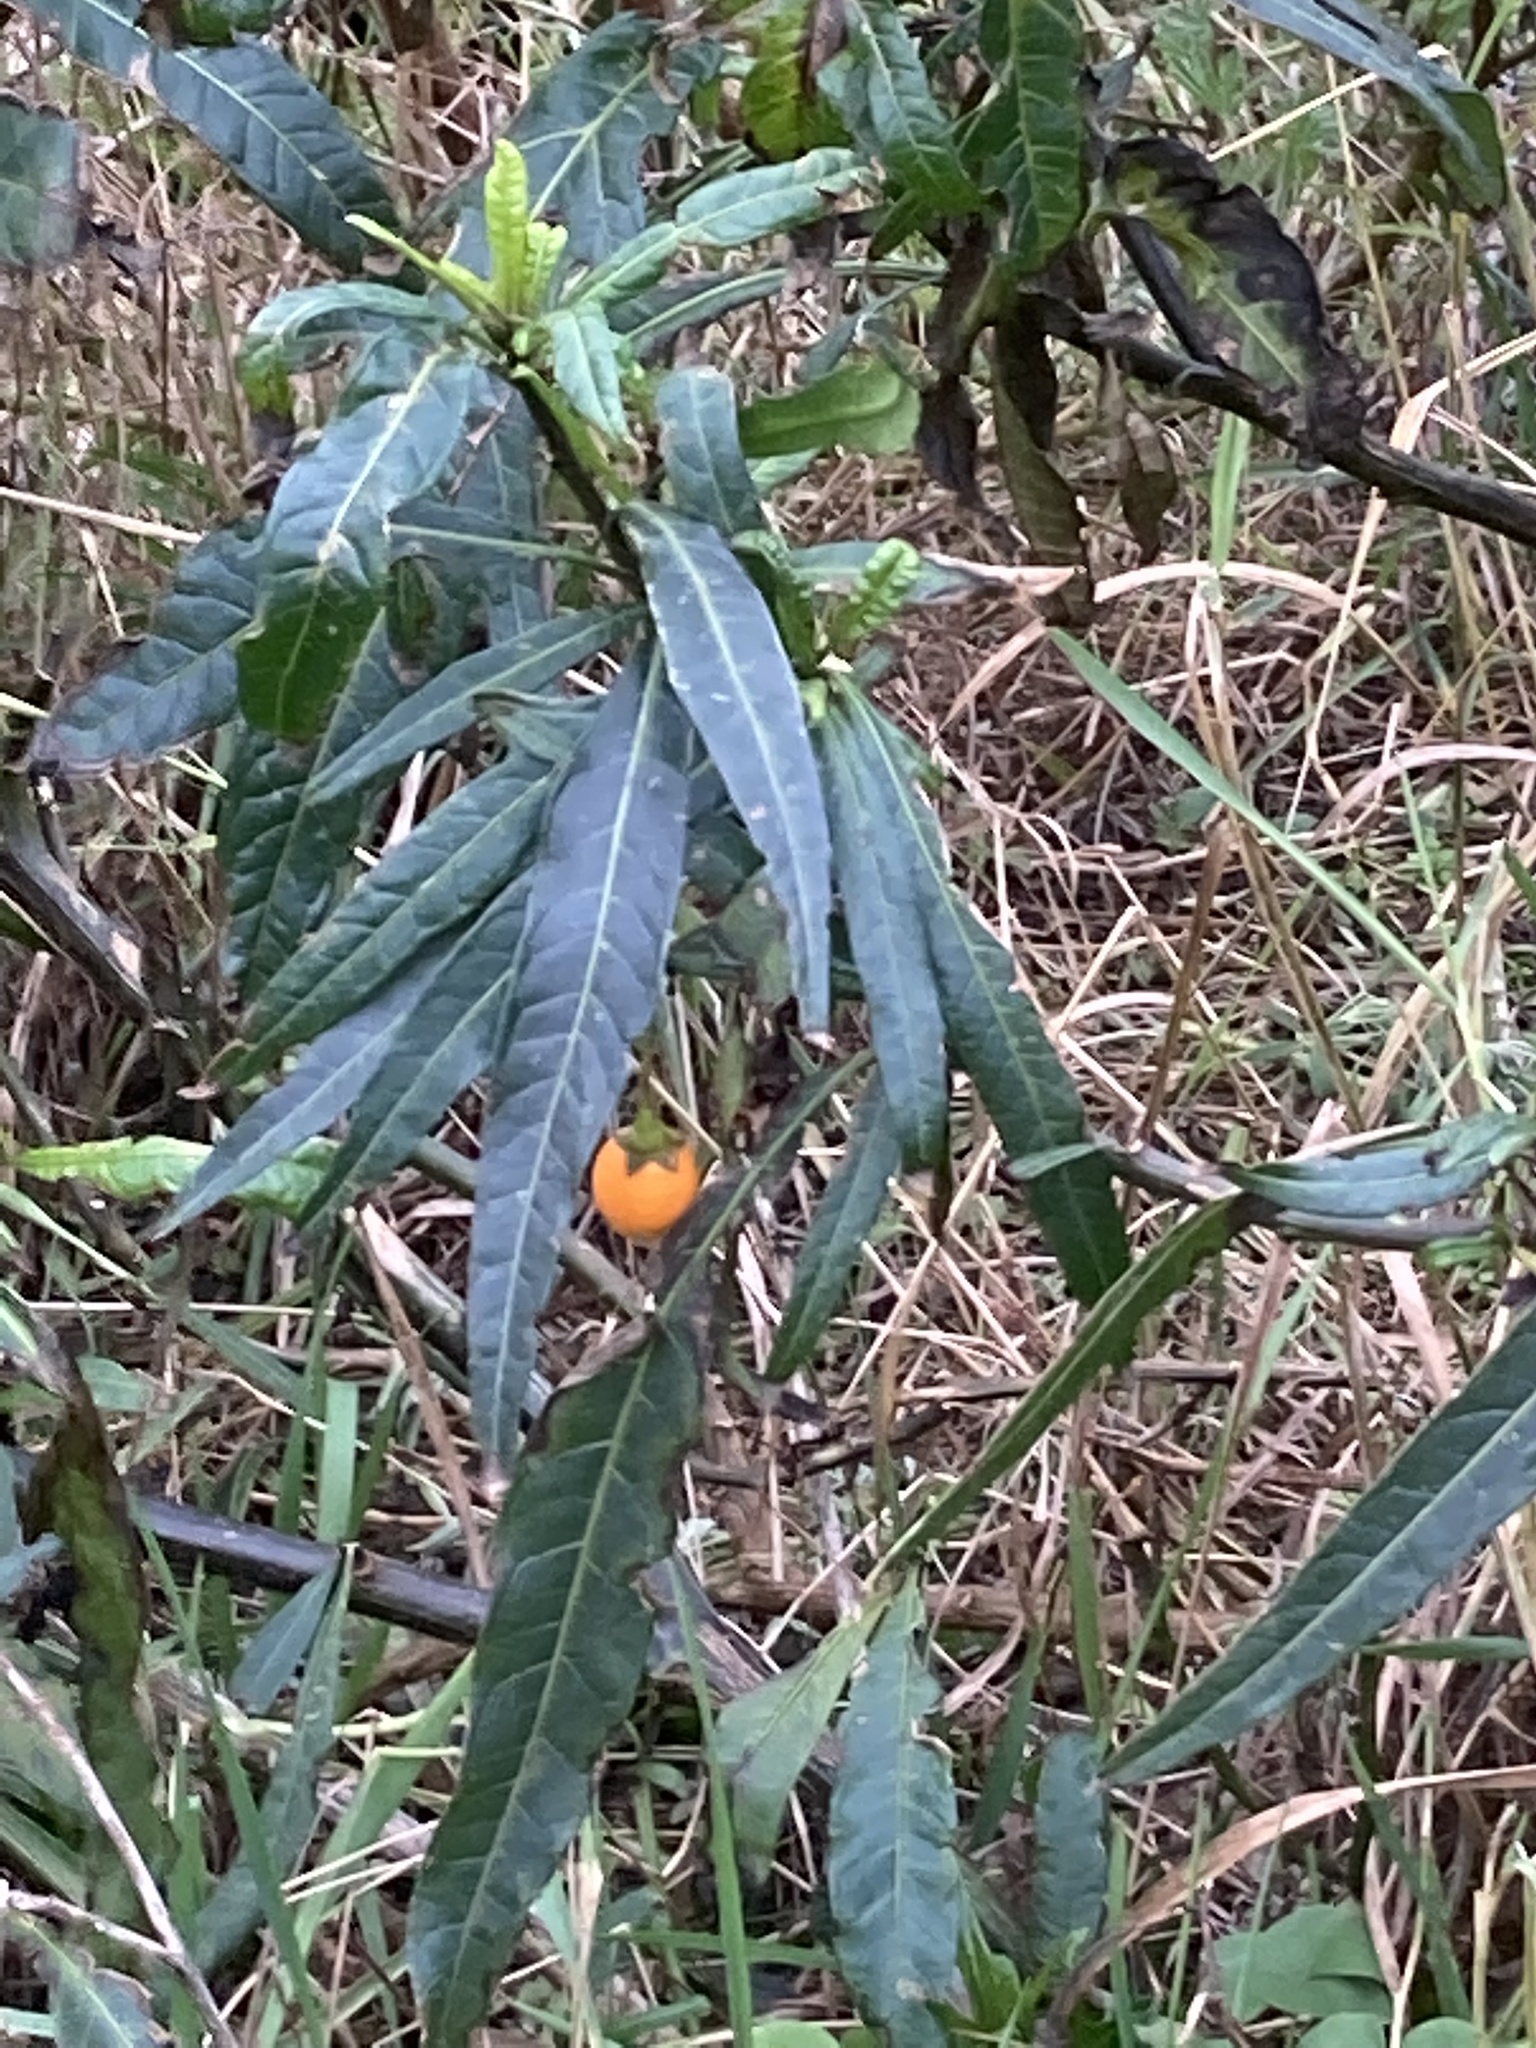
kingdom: Plantae
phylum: Tracheophyta
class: Magnoliopsida
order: Solanales
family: Solanaceae
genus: Solanum
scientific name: Solanum
